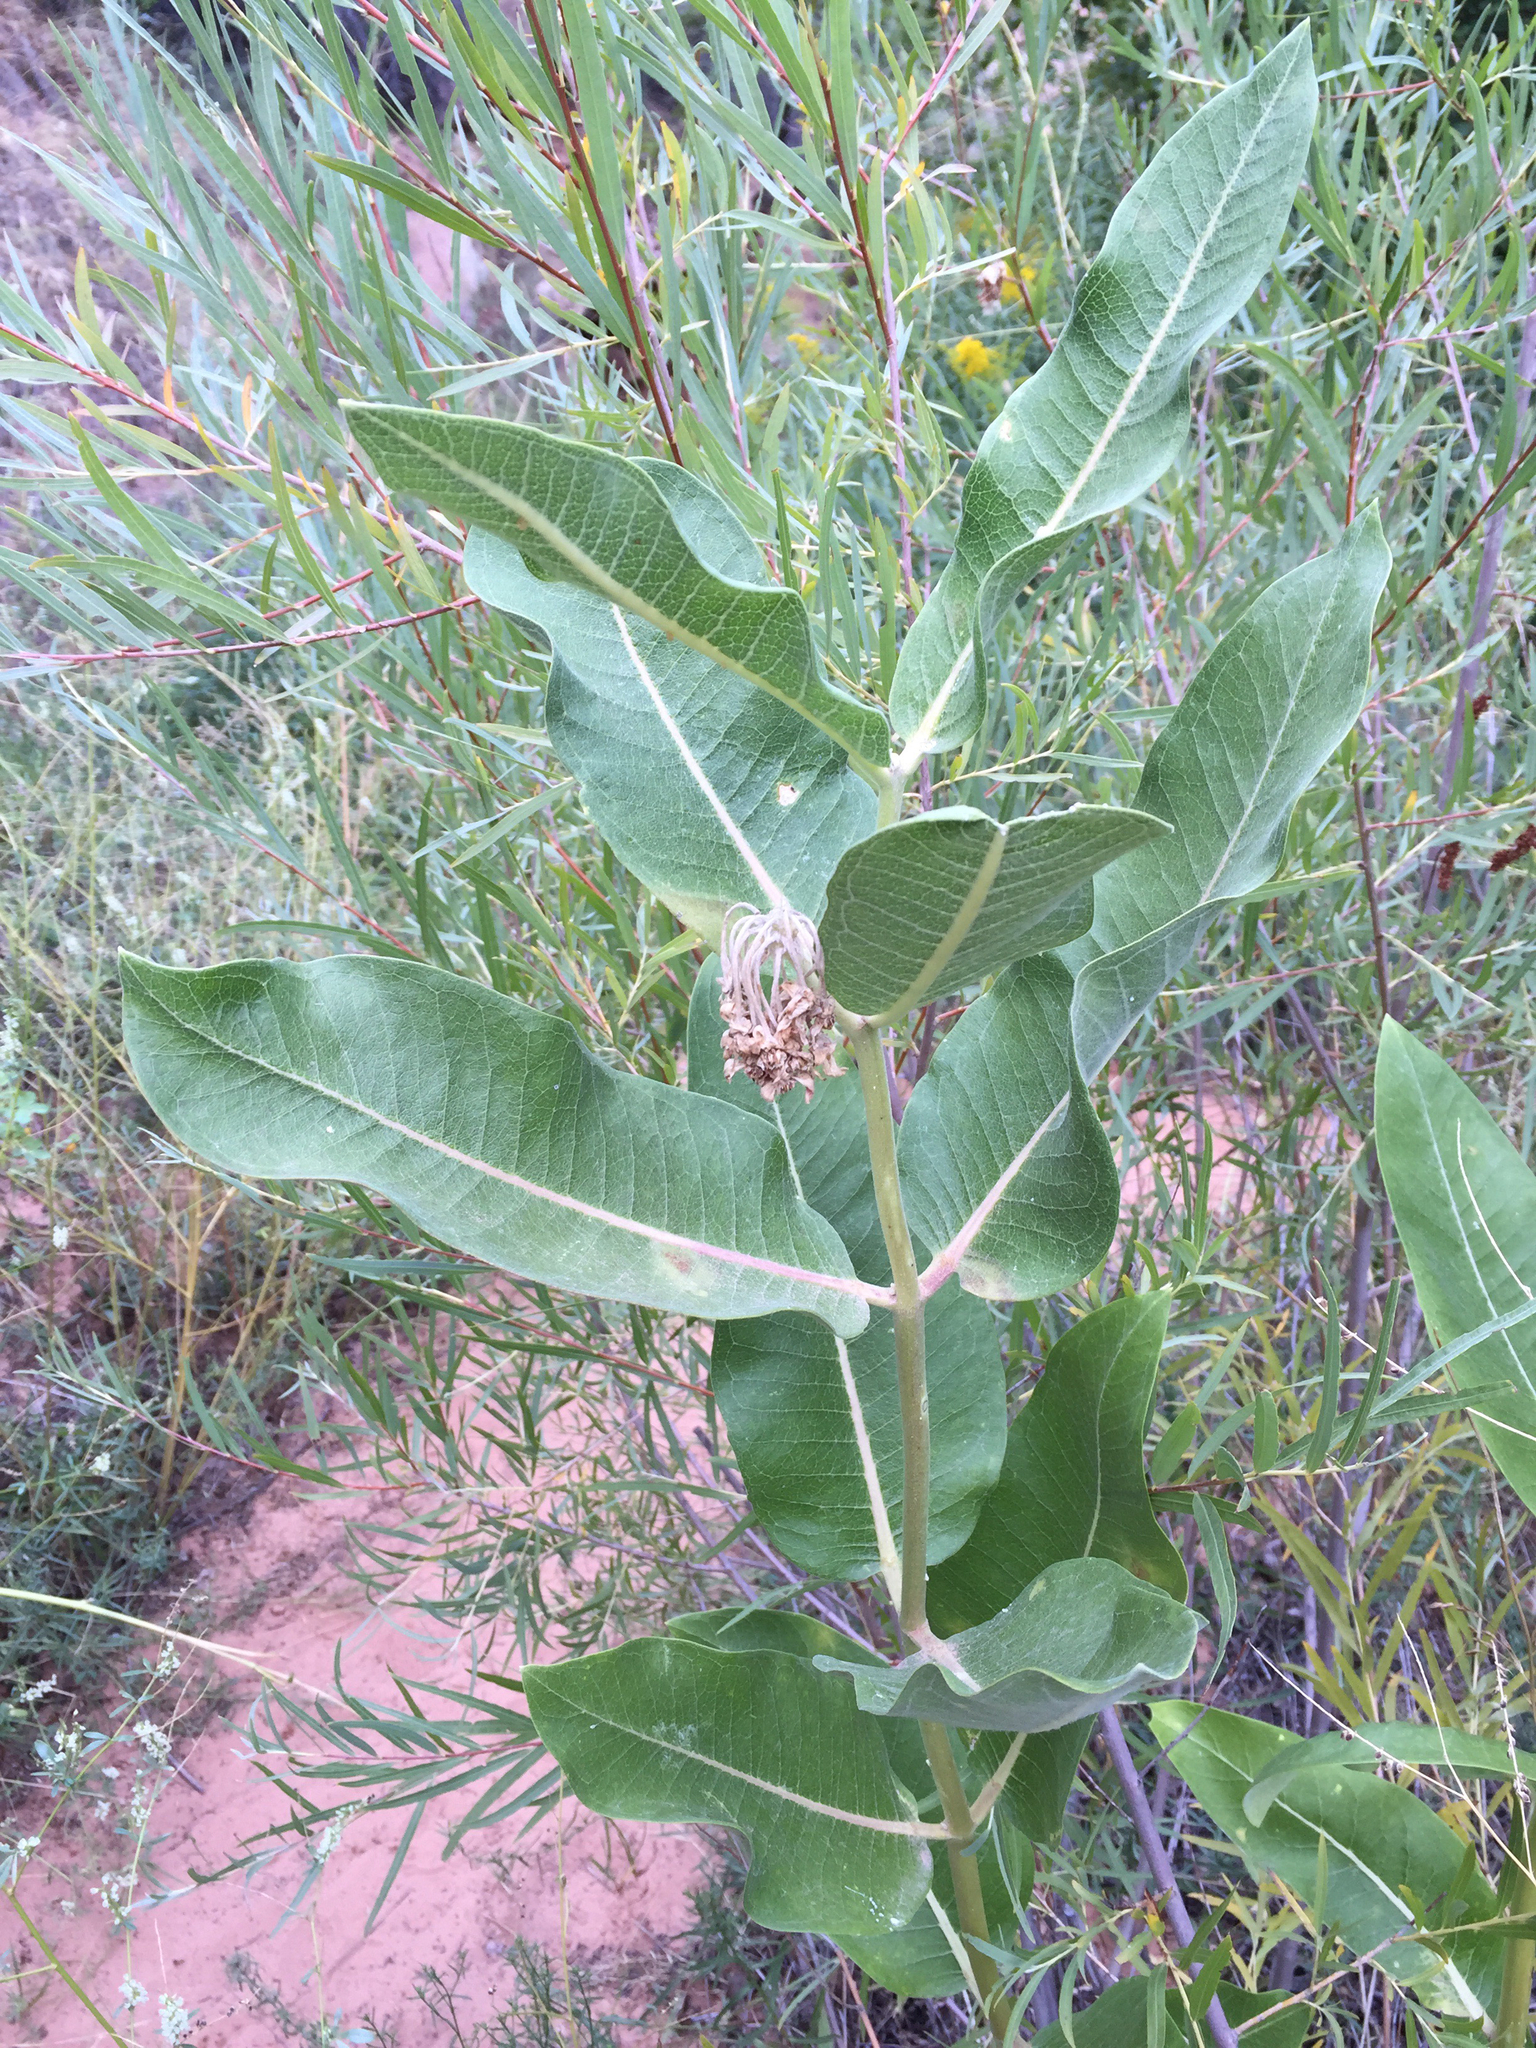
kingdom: Plantae
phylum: Tracheophyta
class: Magnoliopsida
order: Gentianales
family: Apocynaceae
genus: Asclepias
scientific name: Asclepias speciosa
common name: Showy milkweed
